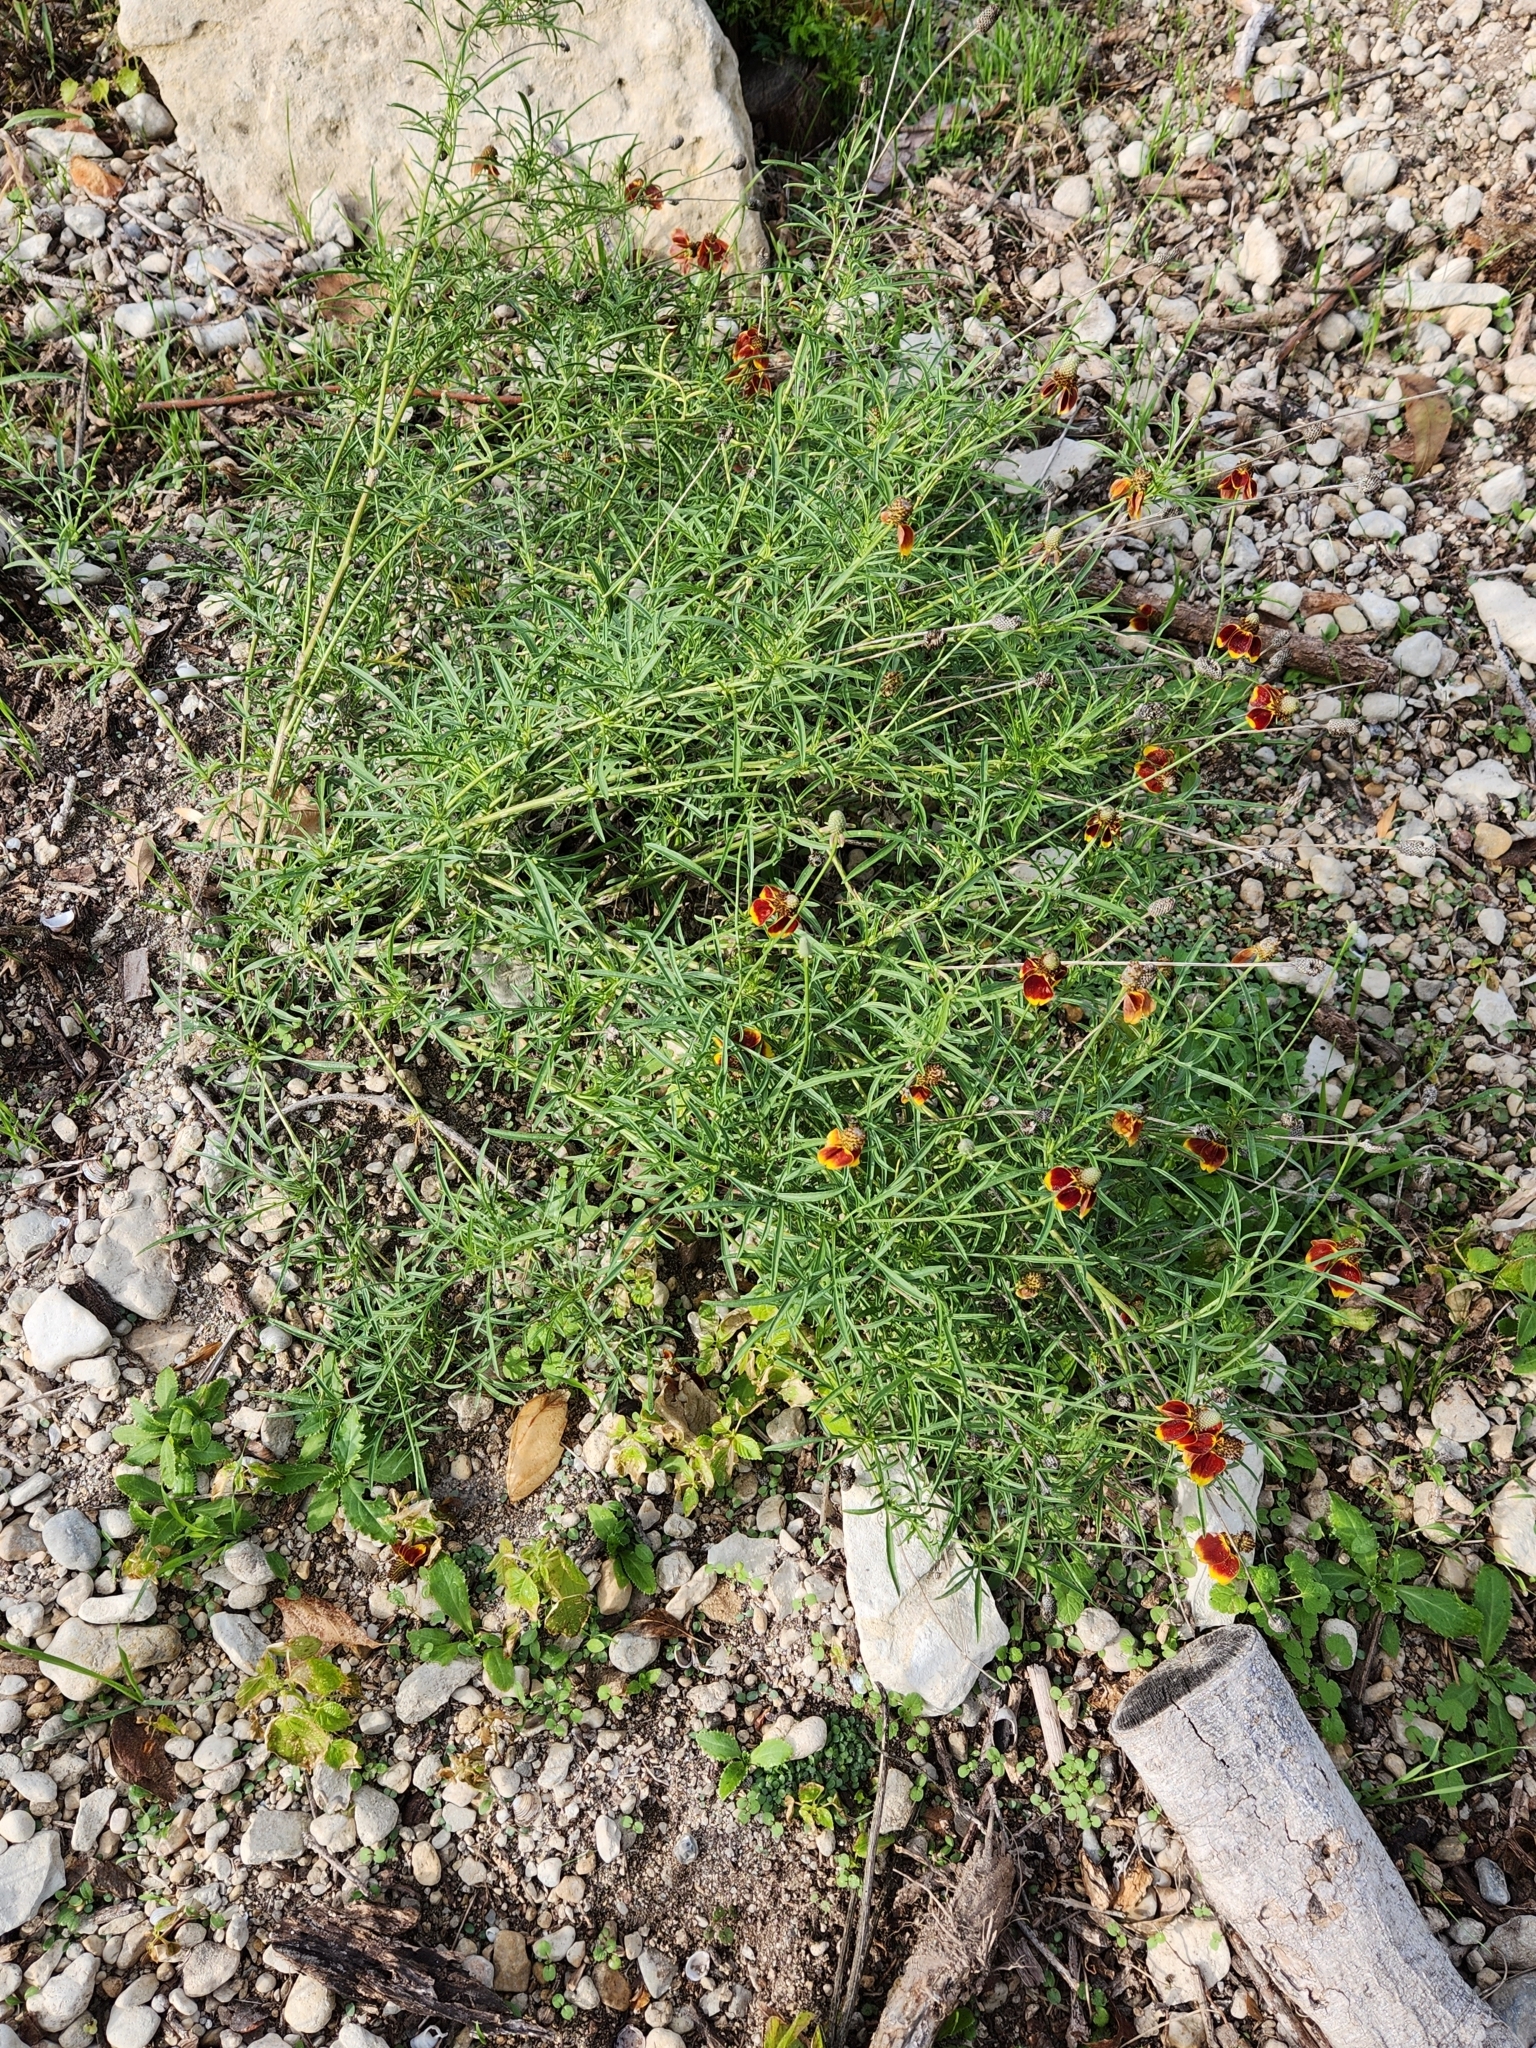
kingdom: Plantae
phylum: Tracheophyta
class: Magnoliopsida
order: Asterales
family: Asteraceae
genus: Ratibida
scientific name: Ratibida columnifera
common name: Prairie coneflower
